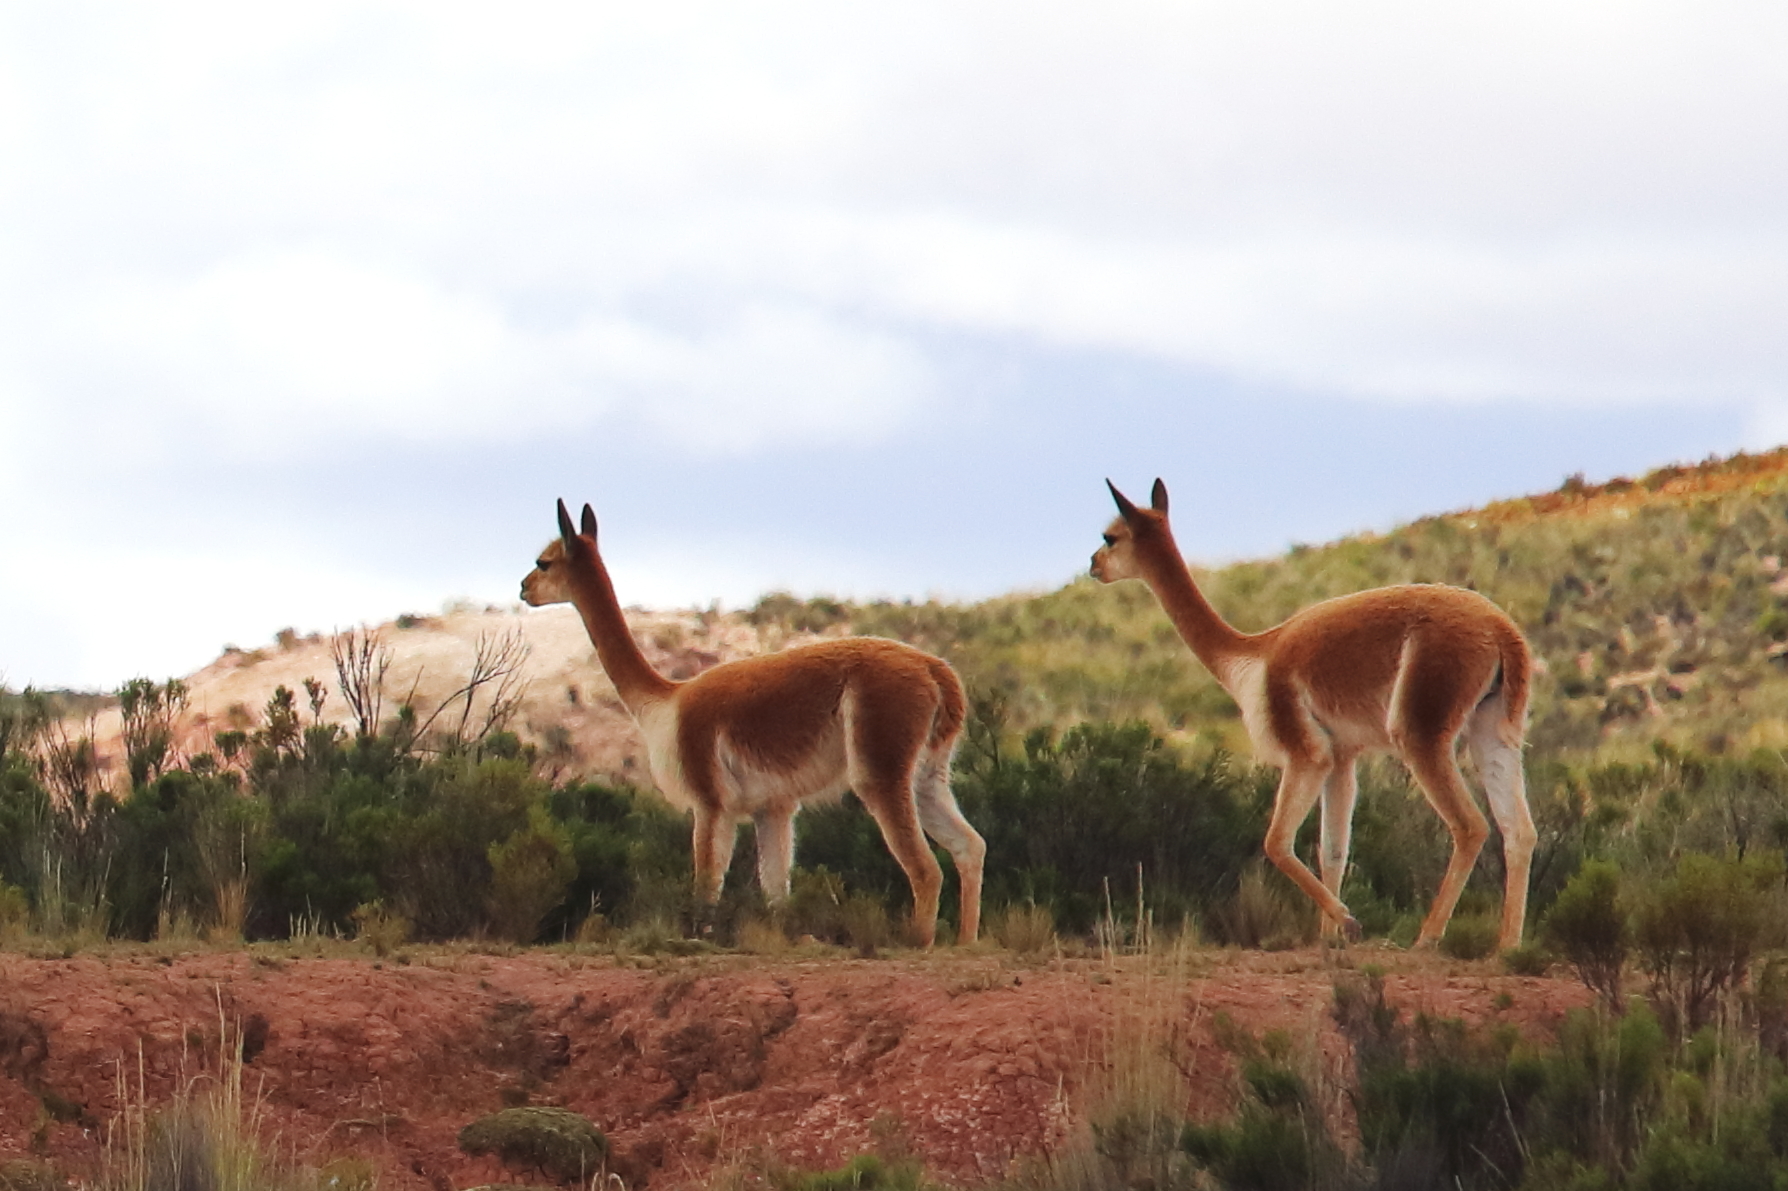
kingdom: Animalia
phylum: Chordata
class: Mammalia
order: Artiodactyla
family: Camelidae
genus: Vicugna
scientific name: Vicugna vicugna
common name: Vicugna
